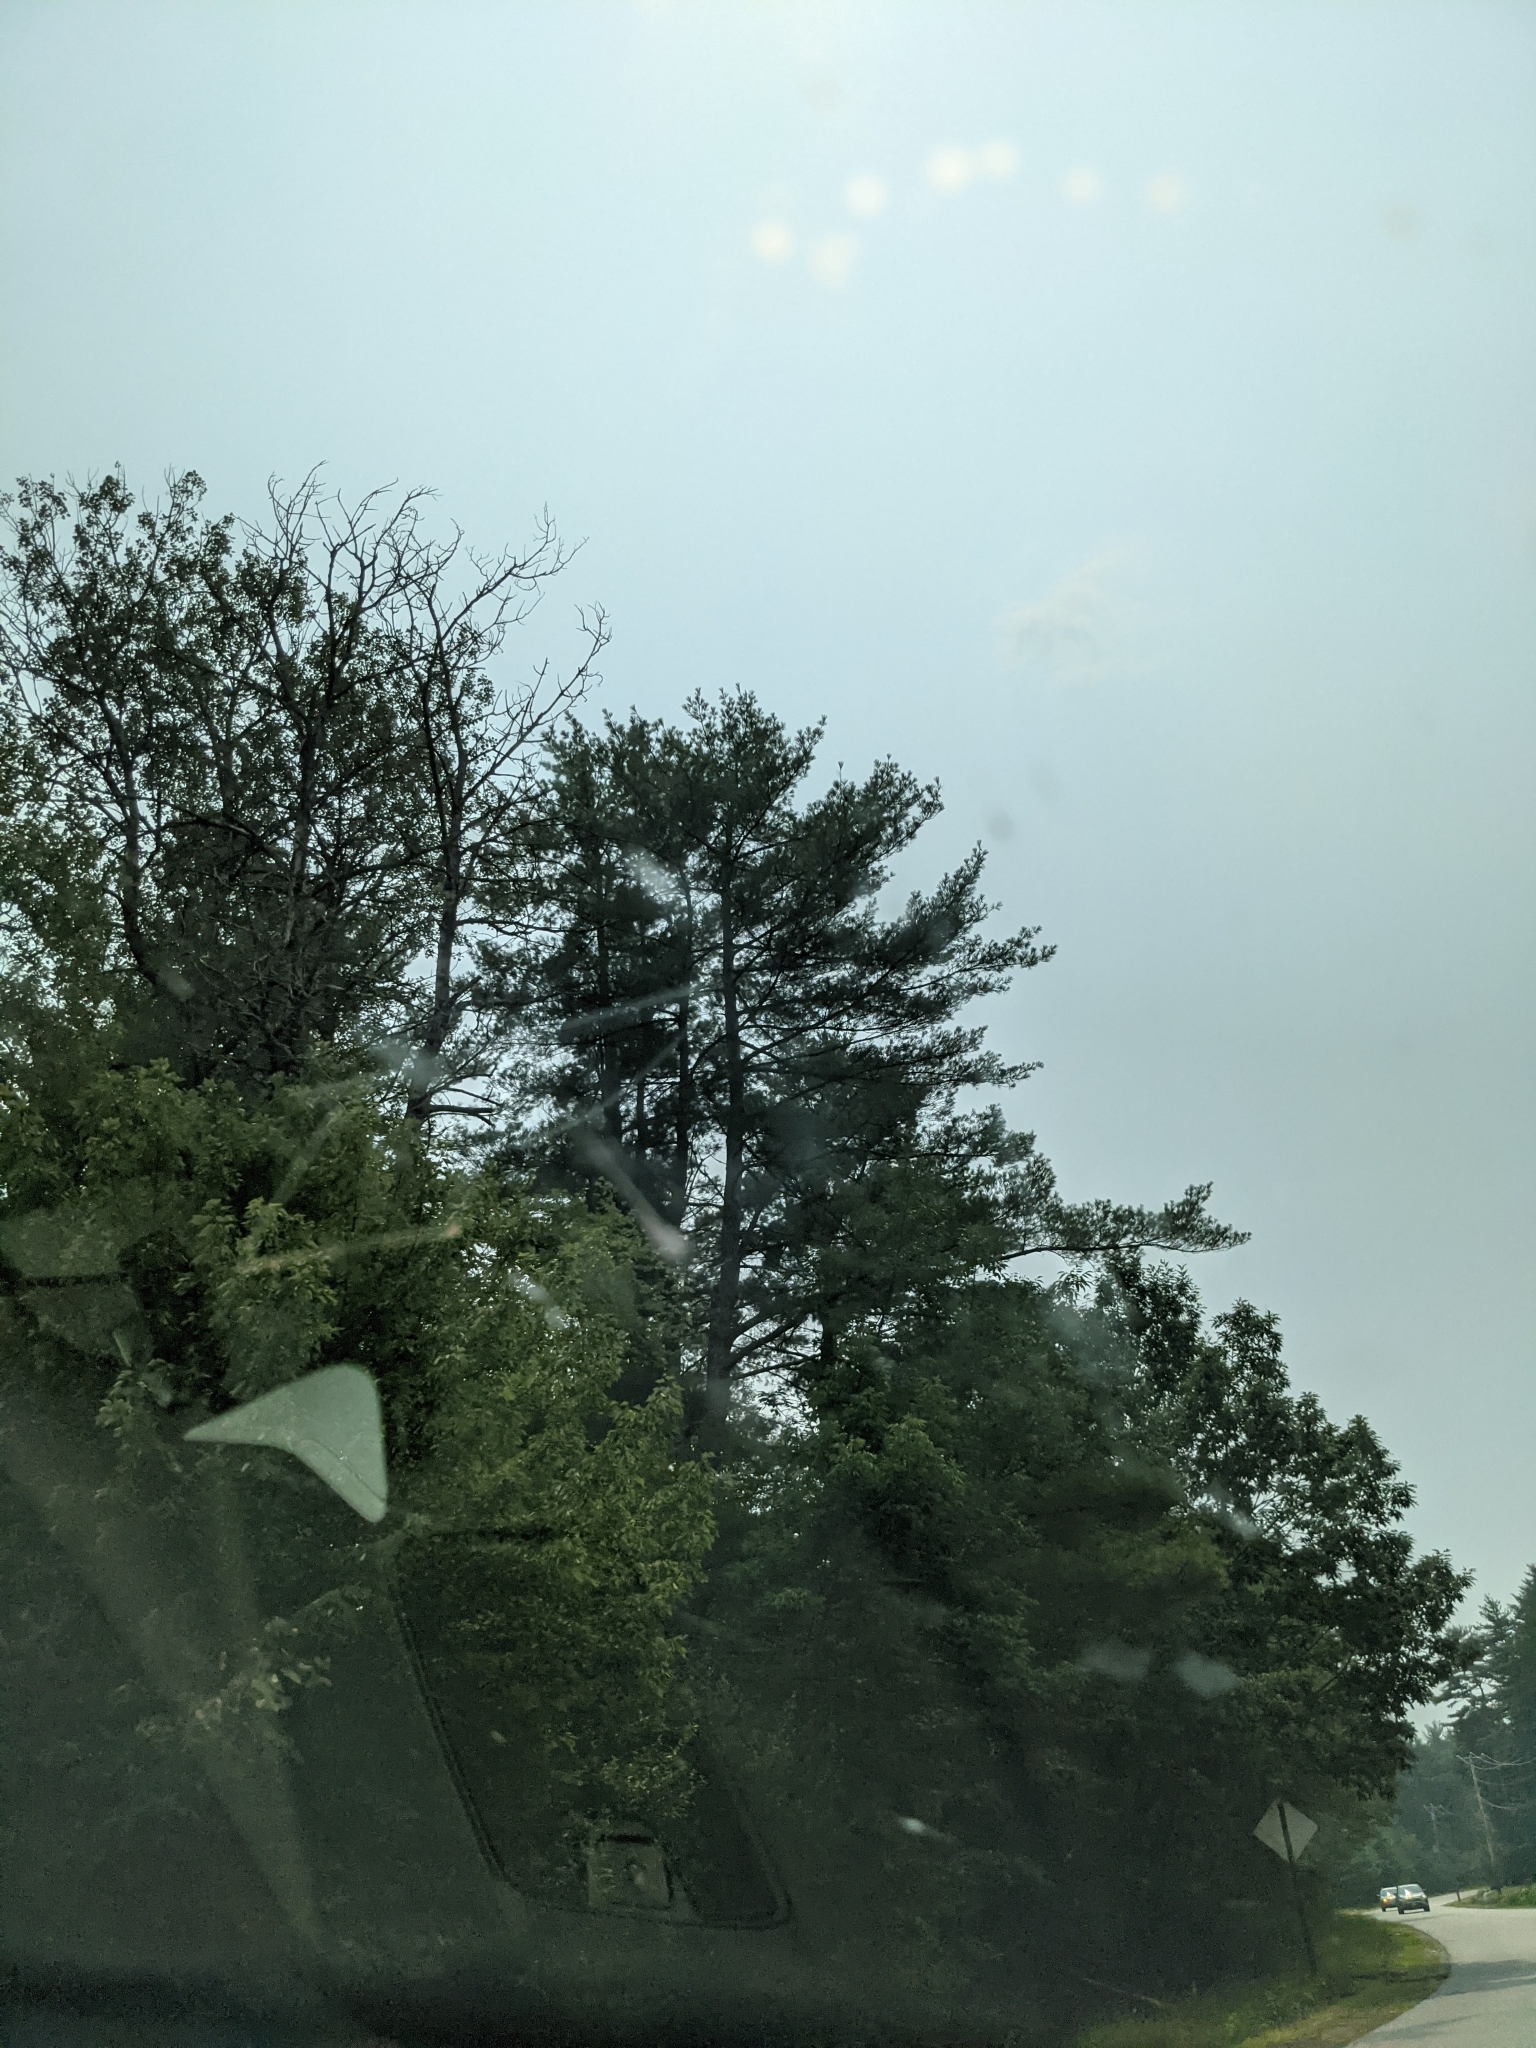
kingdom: Plantae
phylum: Tracheophyta
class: Pinopsida
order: Pinales
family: Pinaceae
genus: Pinus
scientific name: Pinus strobus
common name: Weymouth pine
